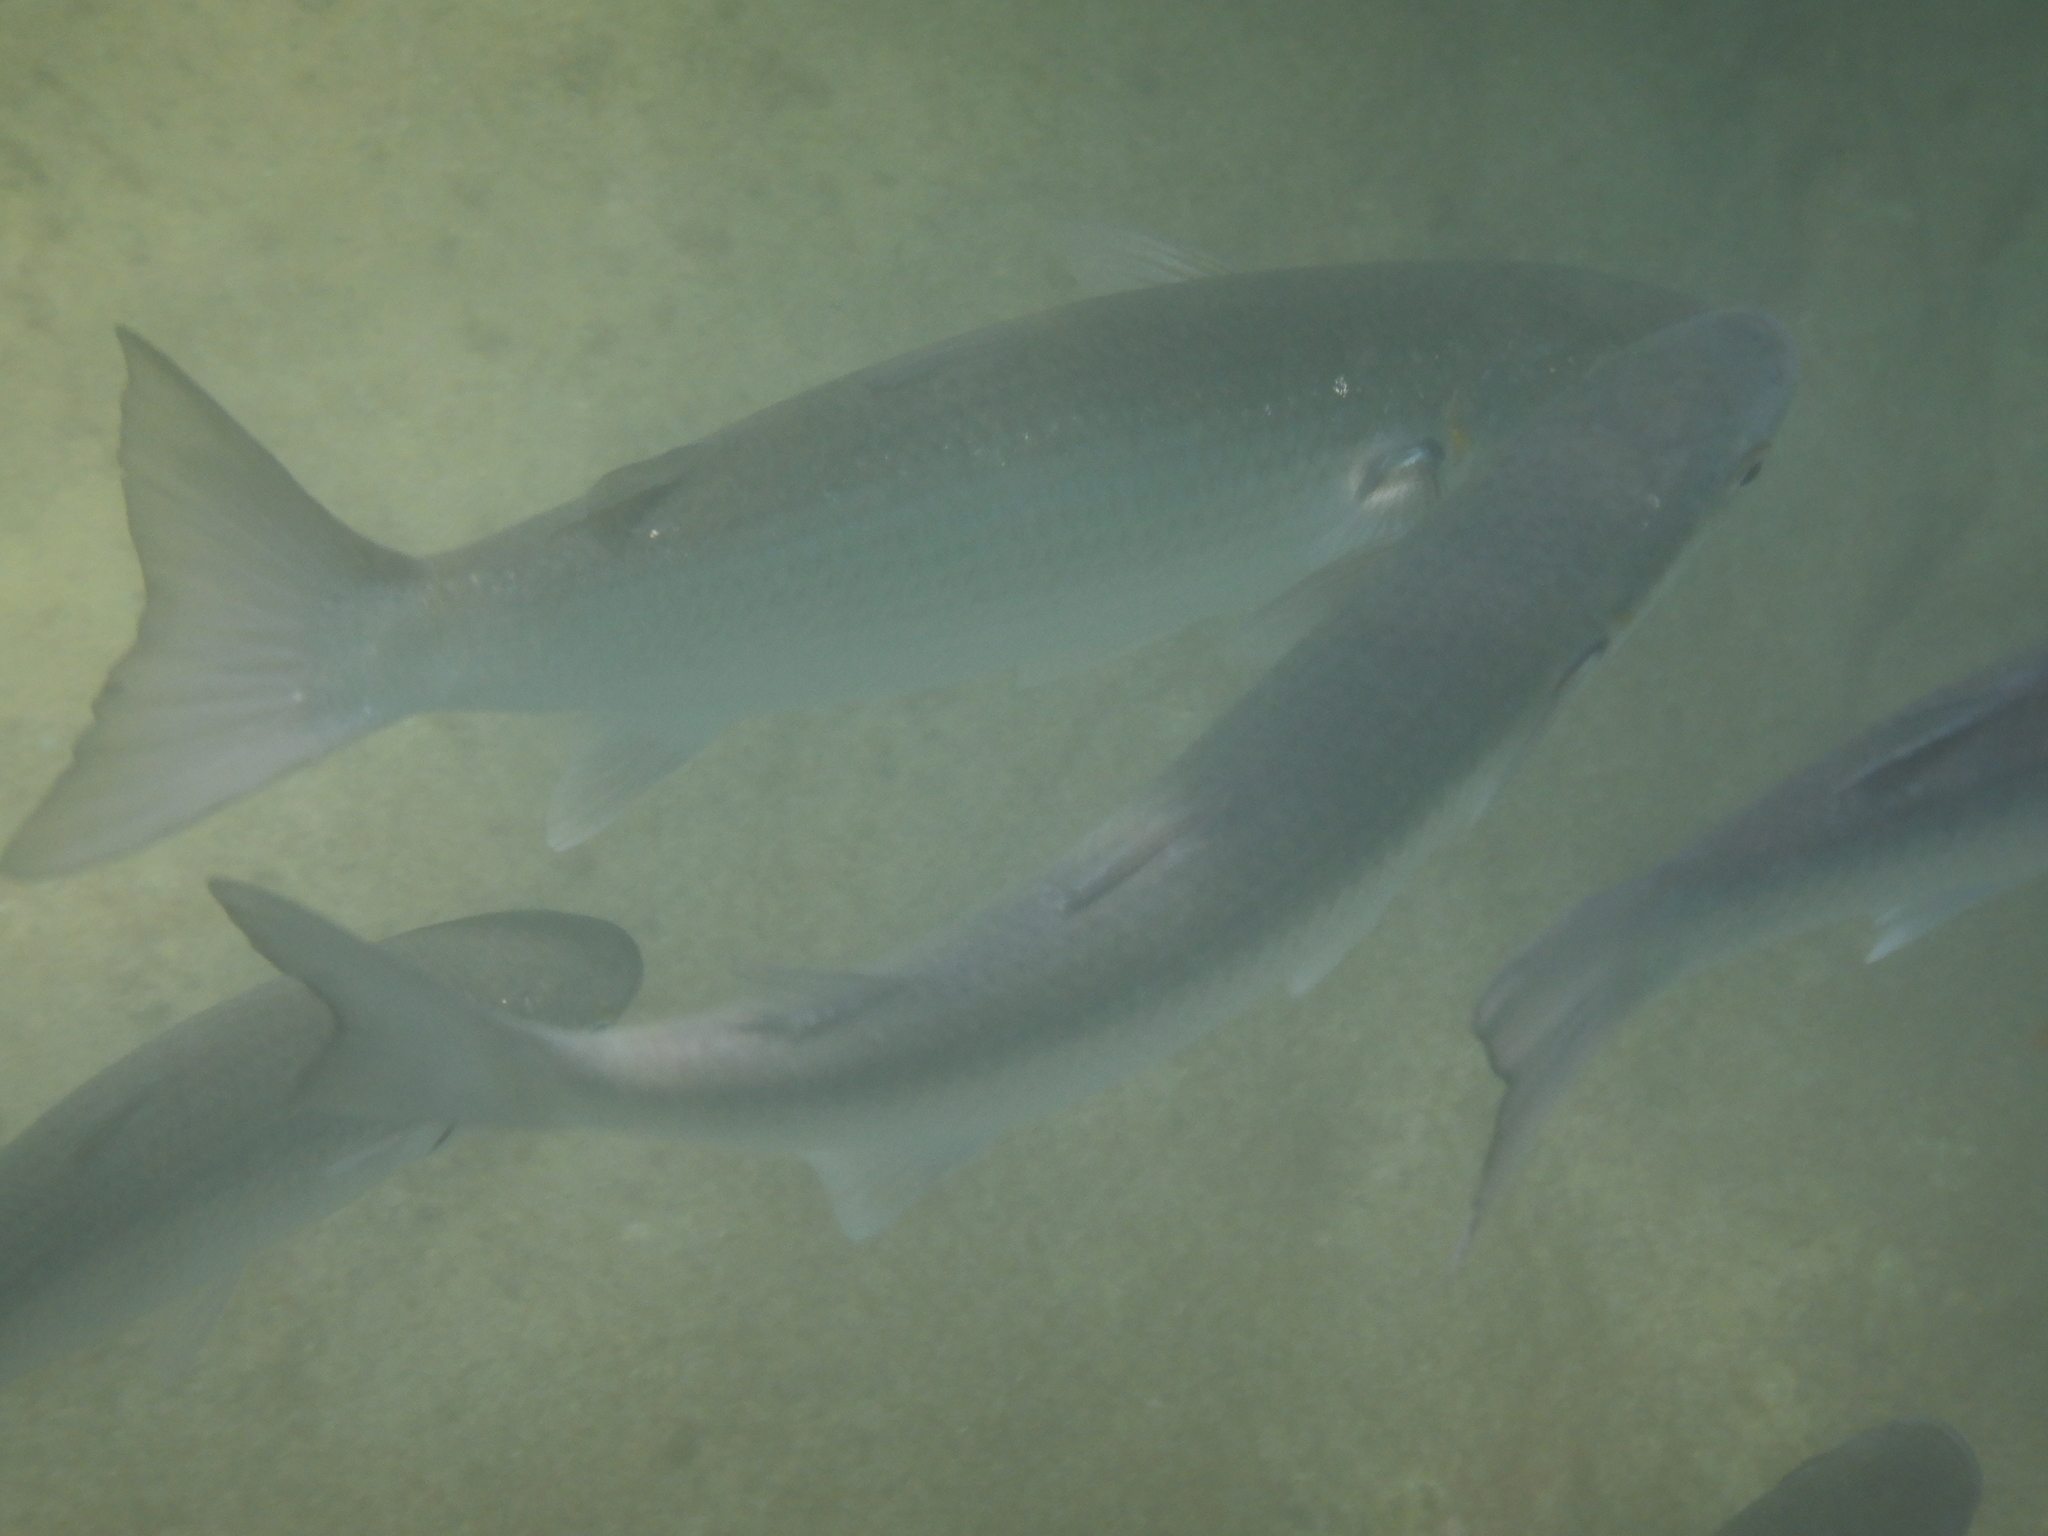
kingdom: Animalia
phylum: Chordata
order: Mugiliformes
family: Mugilidae
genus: Myxus
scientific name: Myxus elongatus
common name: Sand grey mullet
